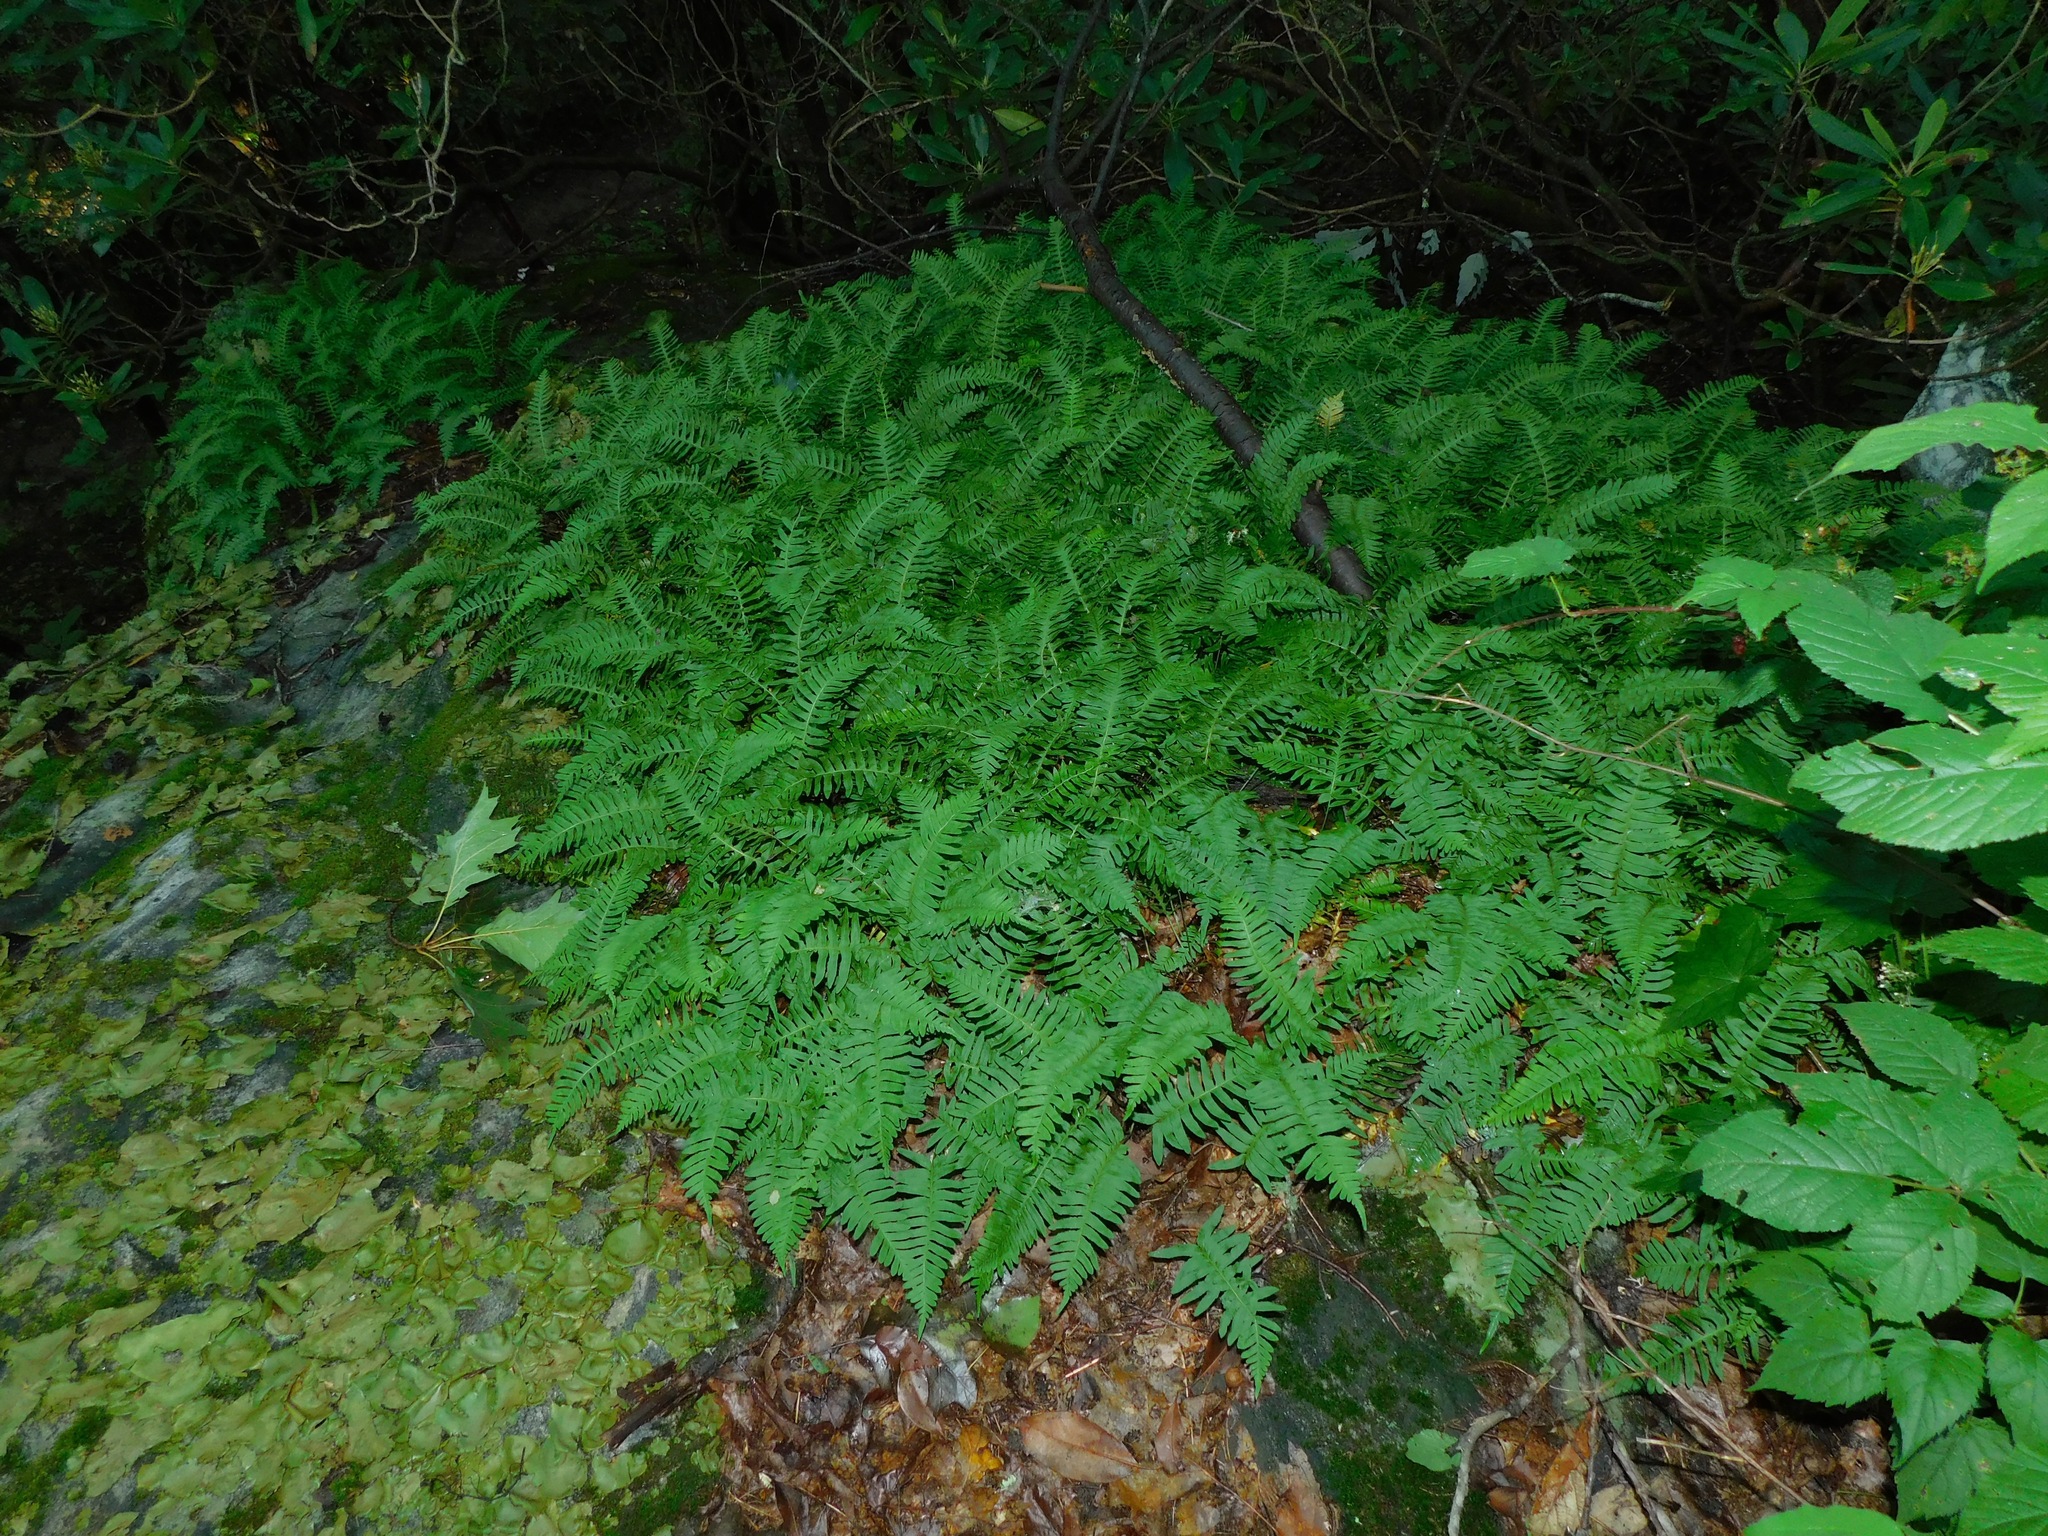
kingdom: Plantae
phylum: Tracheophyta
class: Polypodiopsida
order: Polypodiales
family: Polypodiaceae
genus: Polypodium
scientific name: Polypodium virginianum
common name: American wall fern
